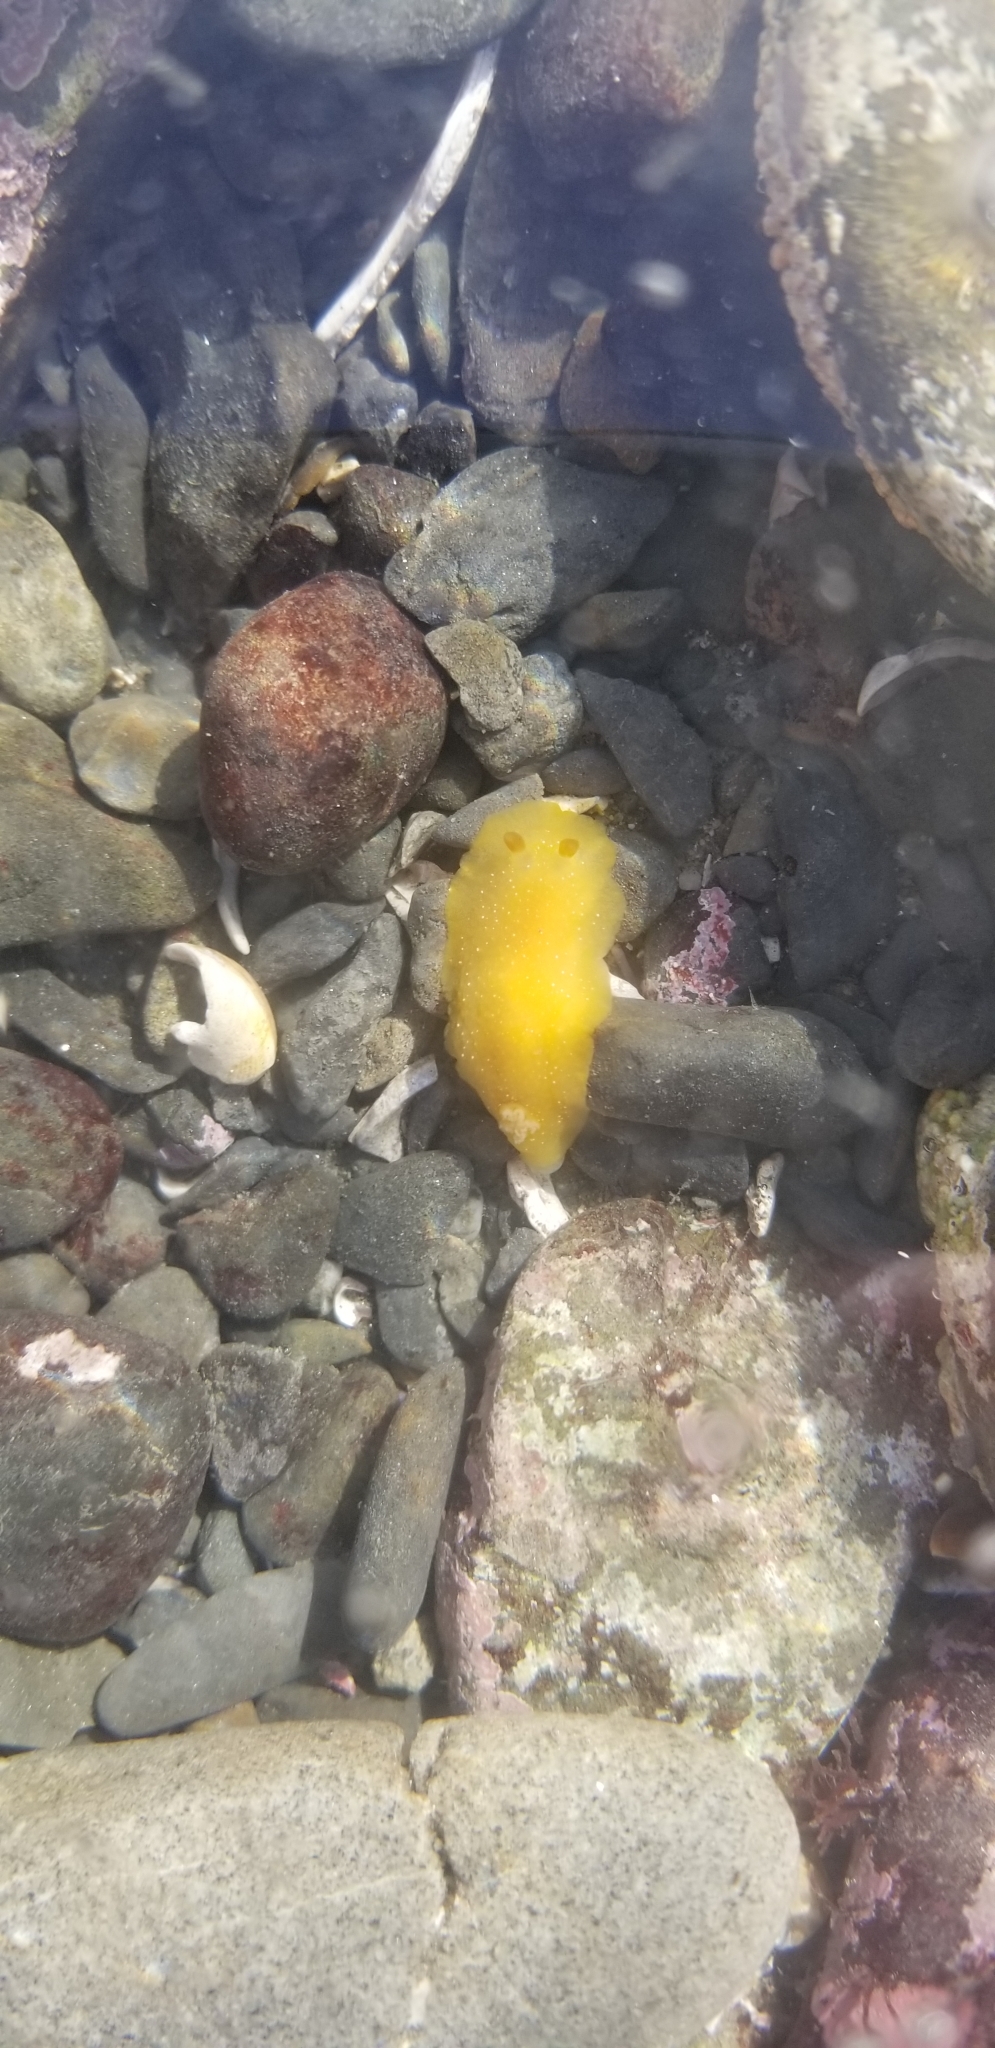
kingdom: Animalia
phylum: Mollusca
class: Gastropoda
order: Nudibranchia
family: Dendrodorididae
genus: Doriopsilla
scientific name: Doriopsilla fulva
